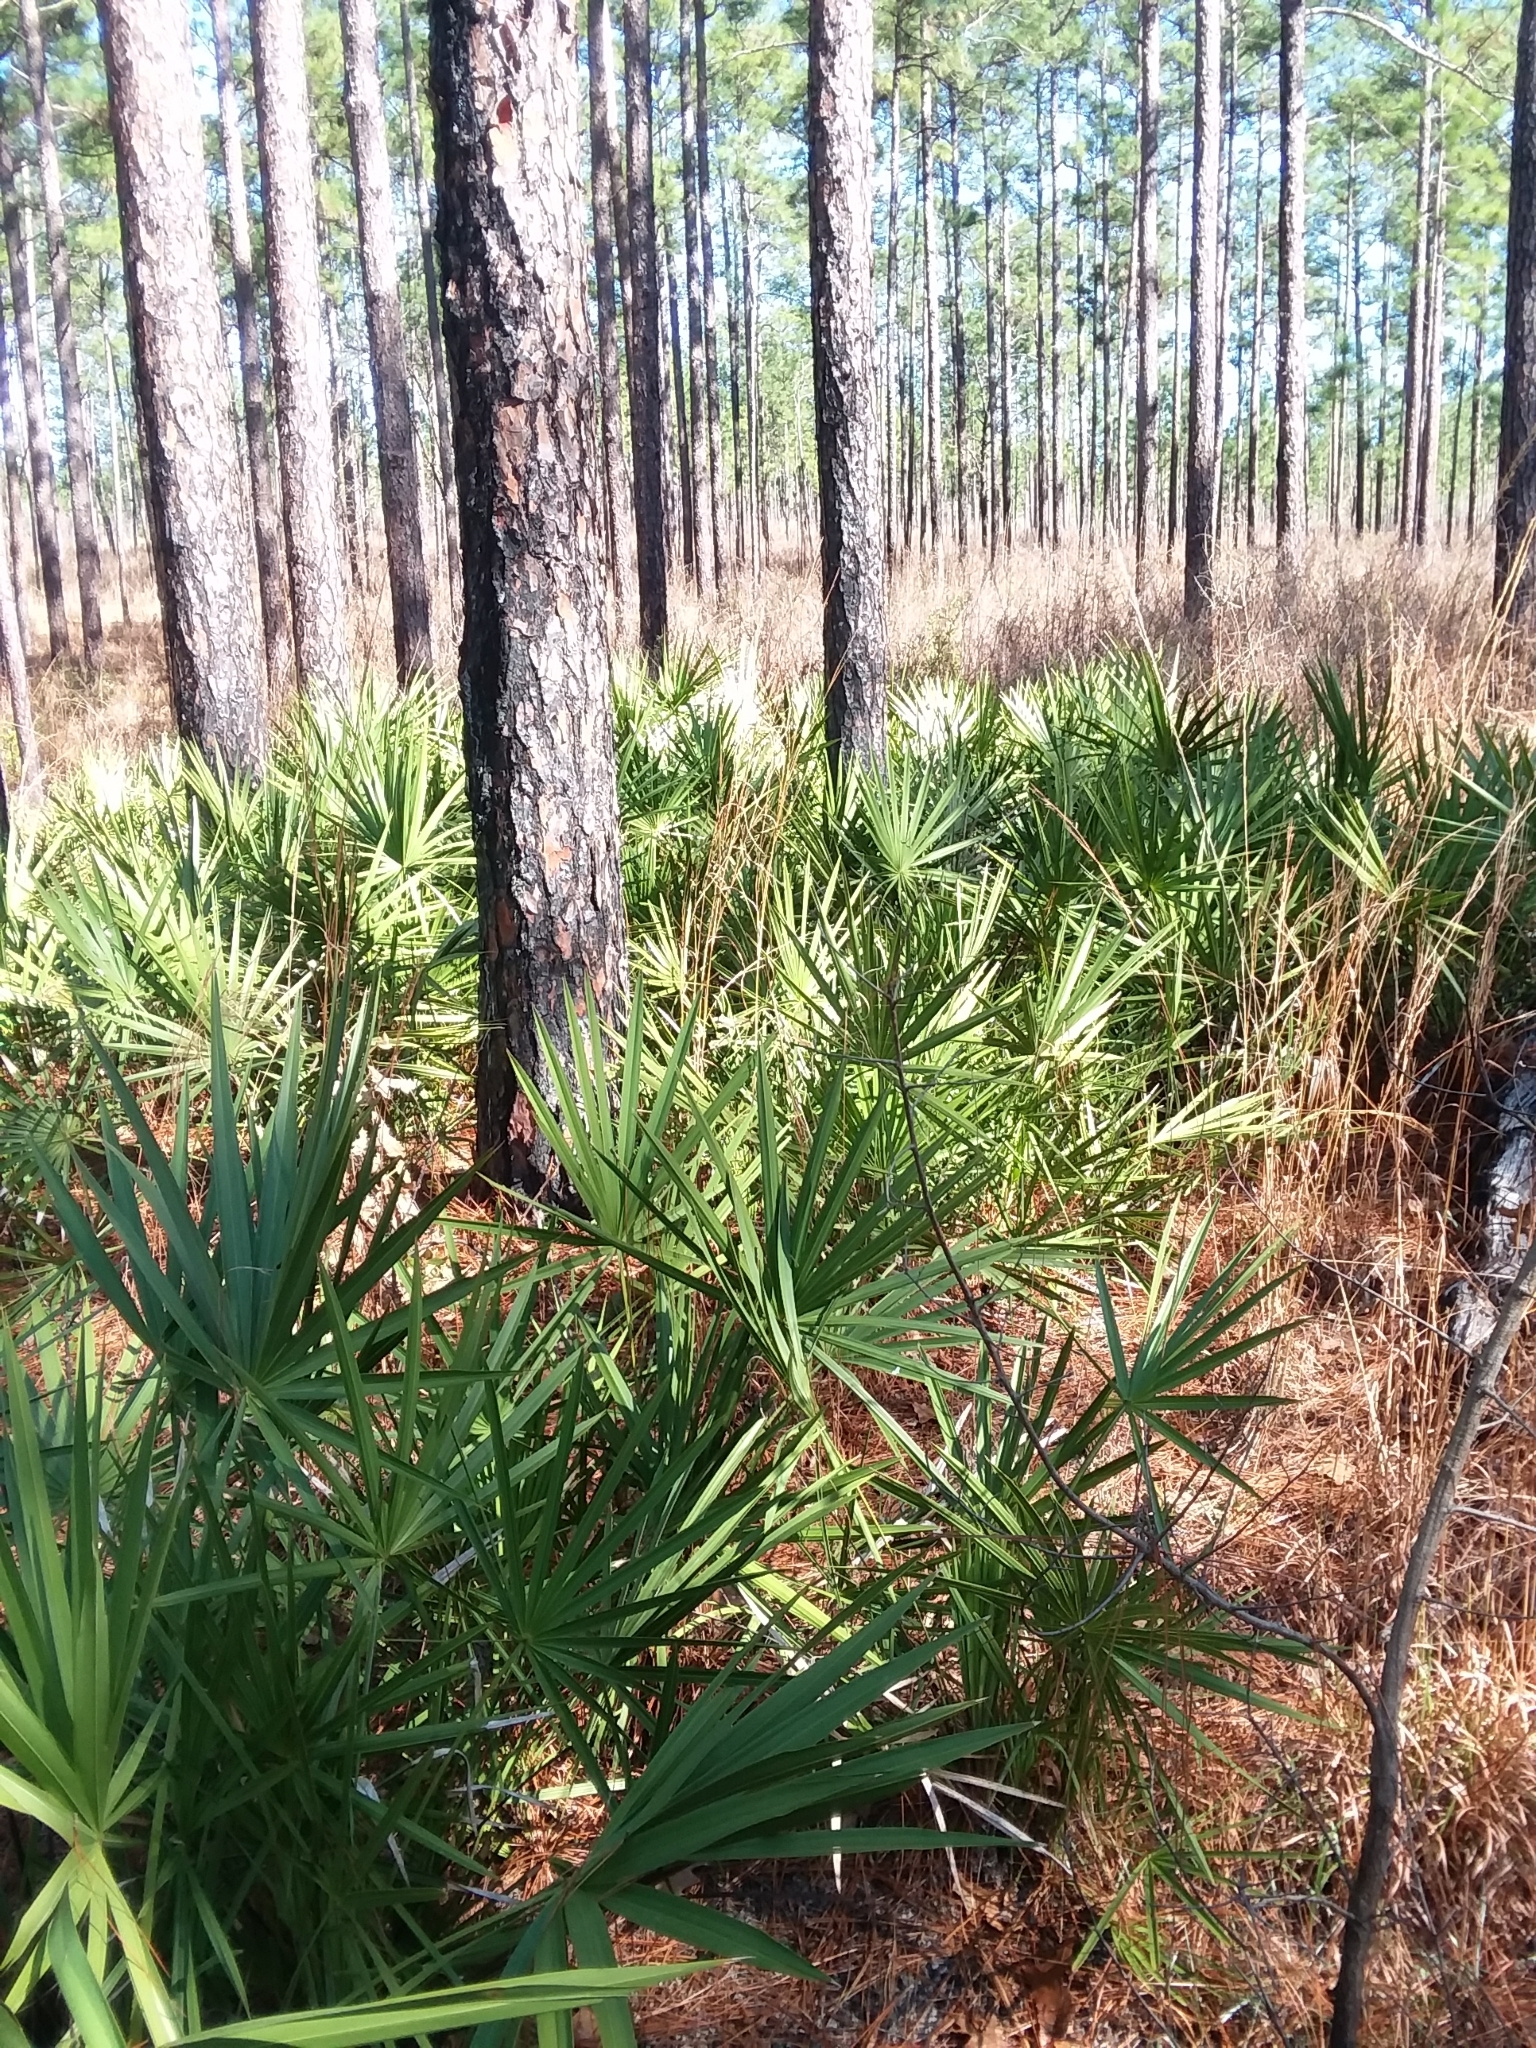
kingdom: Plantae
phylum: Tracheophyta
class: Liliopsida
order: Arecales
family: Arecaceae
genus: Serenoa
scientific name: Serenoa repens
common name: Saw-palmetto
